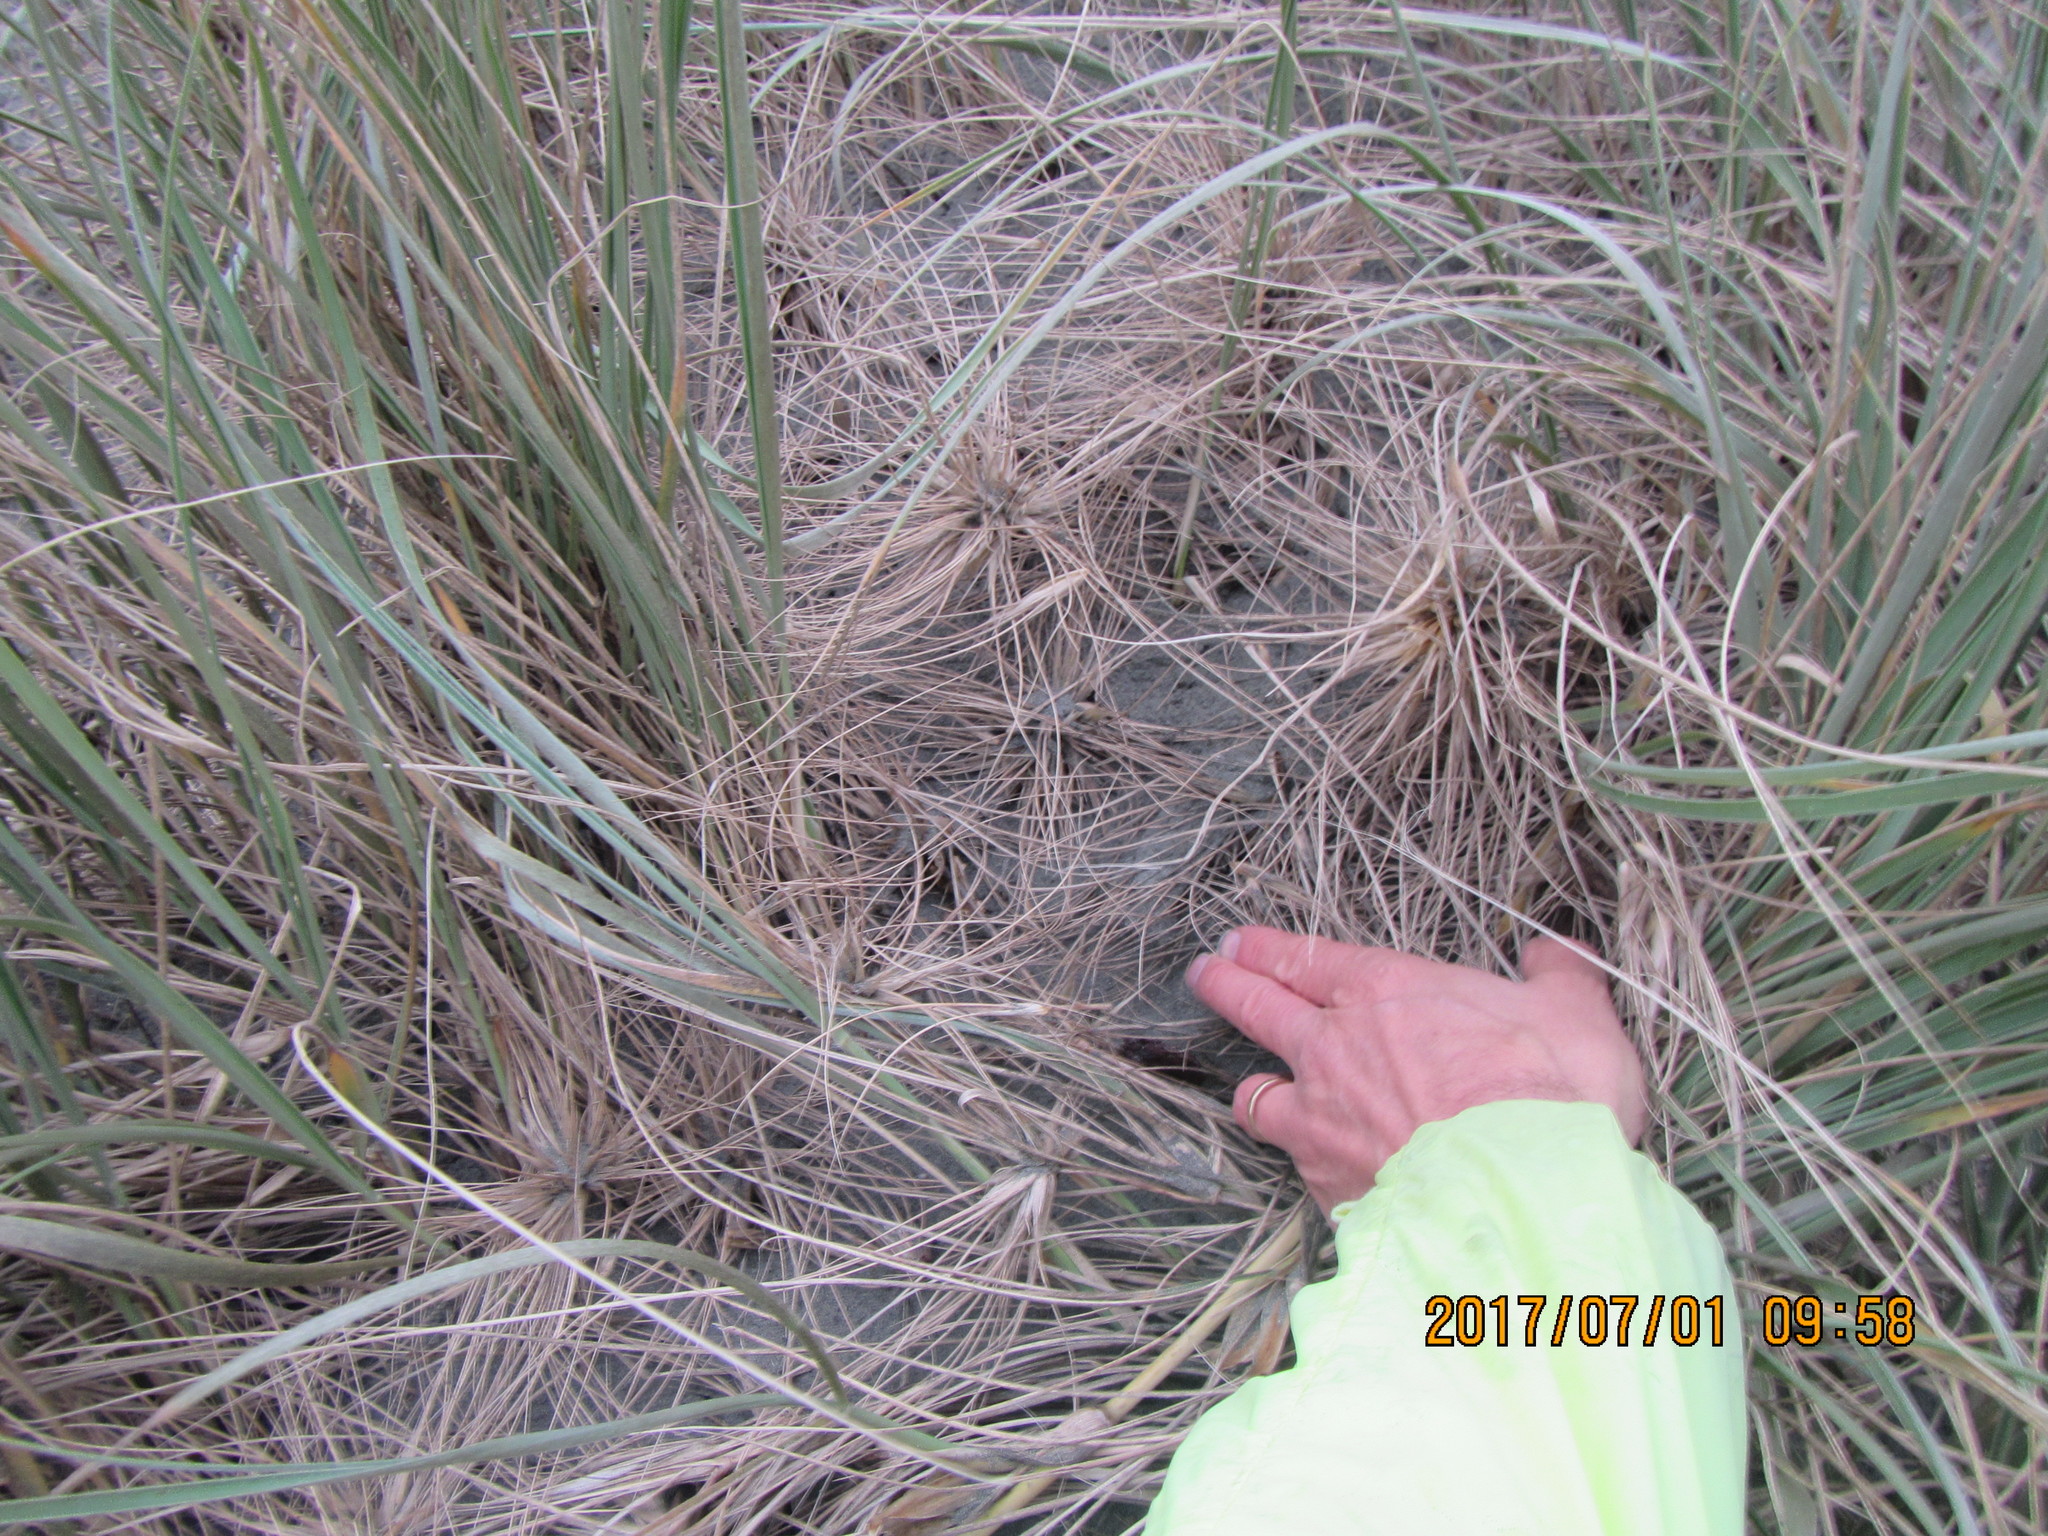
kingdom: Animalia
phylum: Arthropoda
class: Arachnida
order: Araneae
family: Theridiidae
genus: Latrodectus
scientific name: Latrodectus katipo
